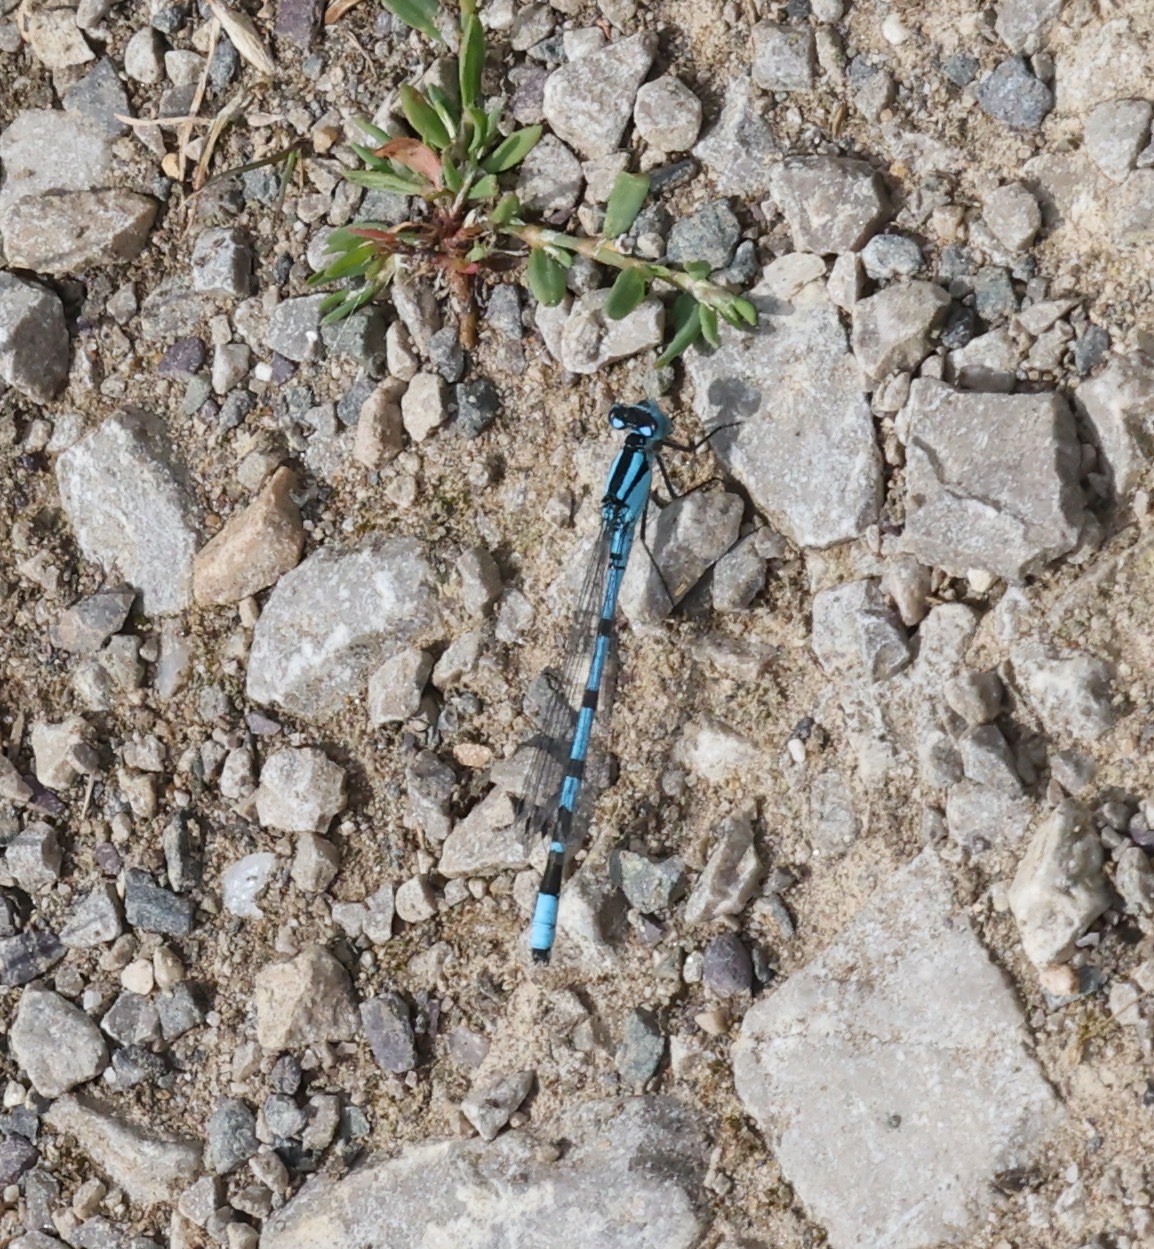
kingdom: Animalia
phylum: Arthropoda
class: Insecta
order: Odonata
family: Coenagrionidae
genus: Enallagma
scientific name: Enallagma cyathigerum
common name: Common blue damselfly
